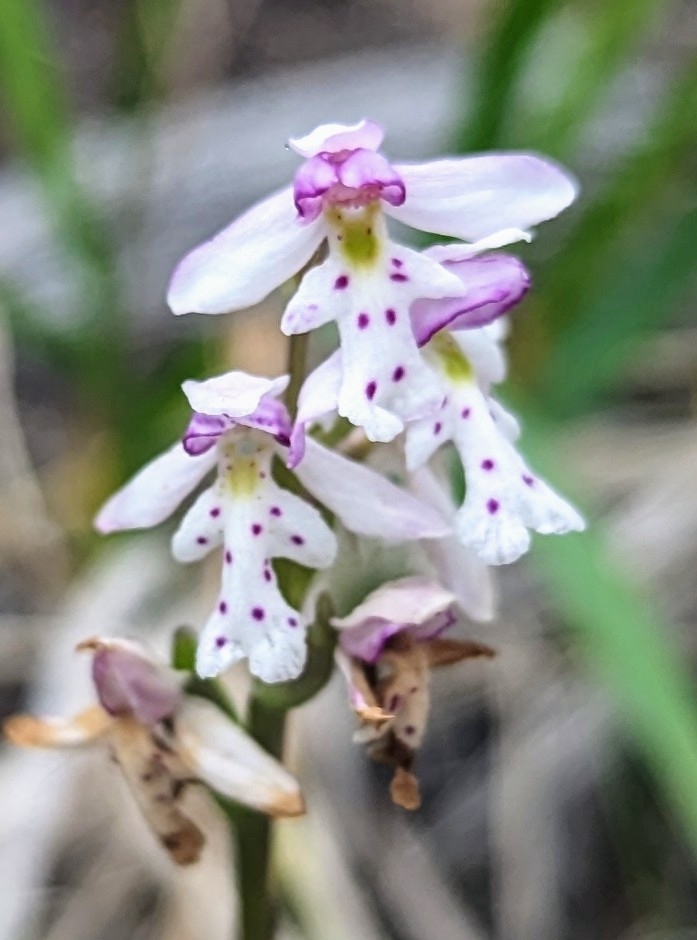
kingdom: Plantae
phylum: Tracheophyta
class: Liliopsida
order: Asparagales
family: Orchidaceae
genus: Galearis
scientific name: Galearis rotundifolia
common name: One-leaved orchis
